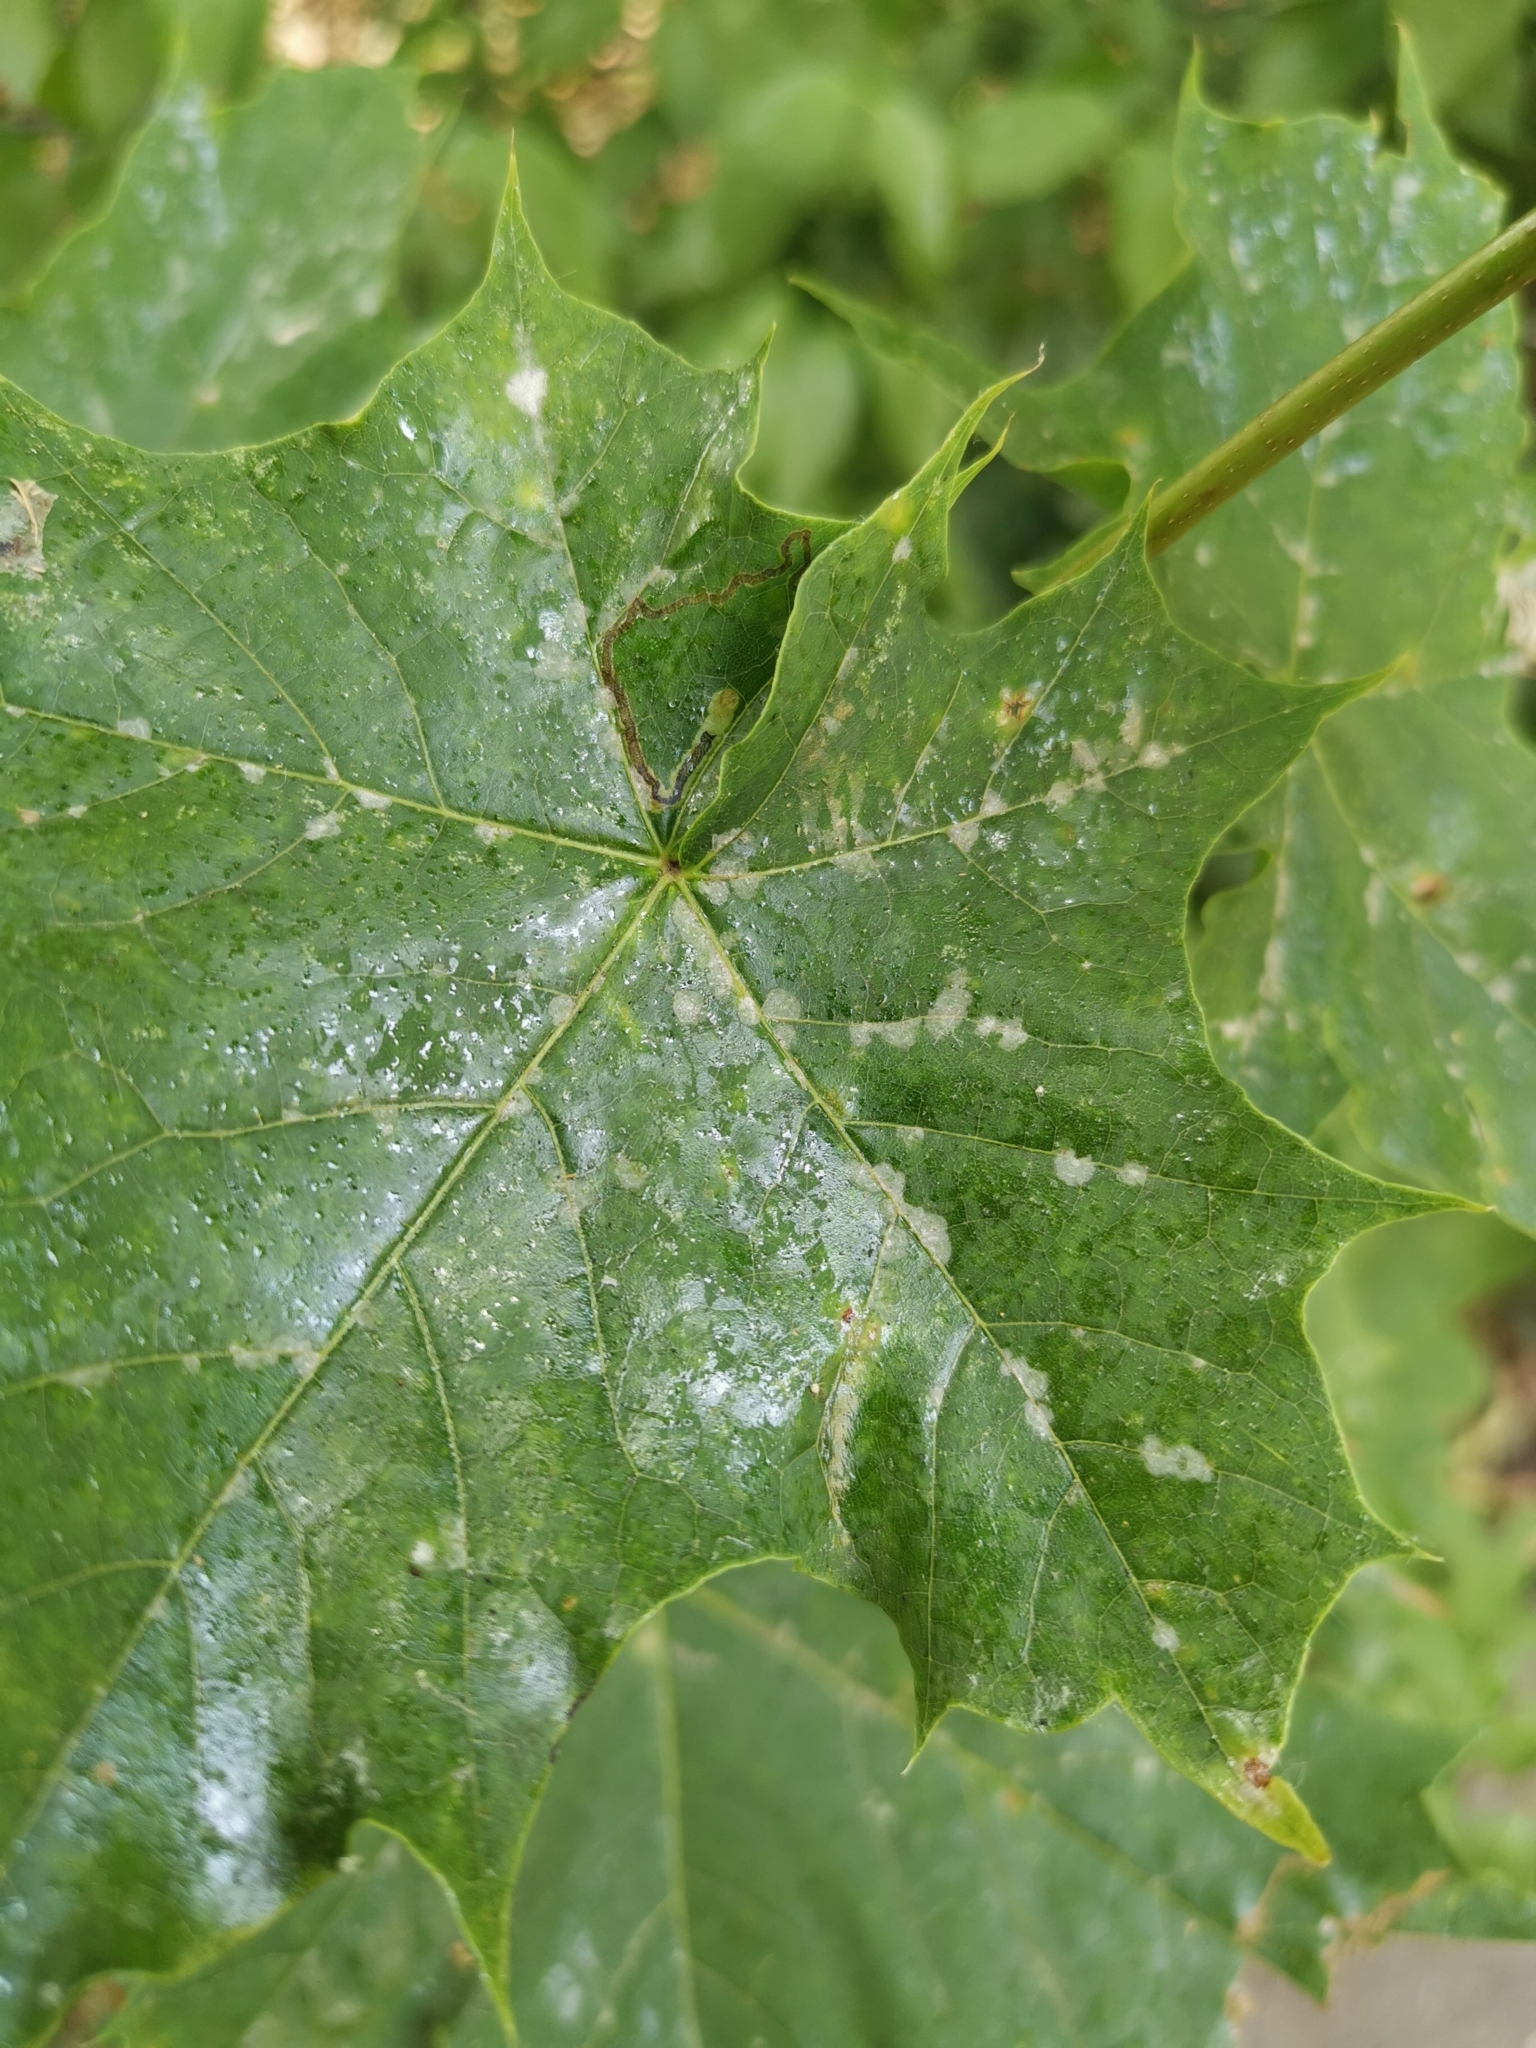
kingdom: Fungi
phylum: Ascomycota
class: Leotiomycetes
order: Helotiales
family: Erysiphaceae
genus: Sawadaea
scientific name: Sawadaea tulasnei
